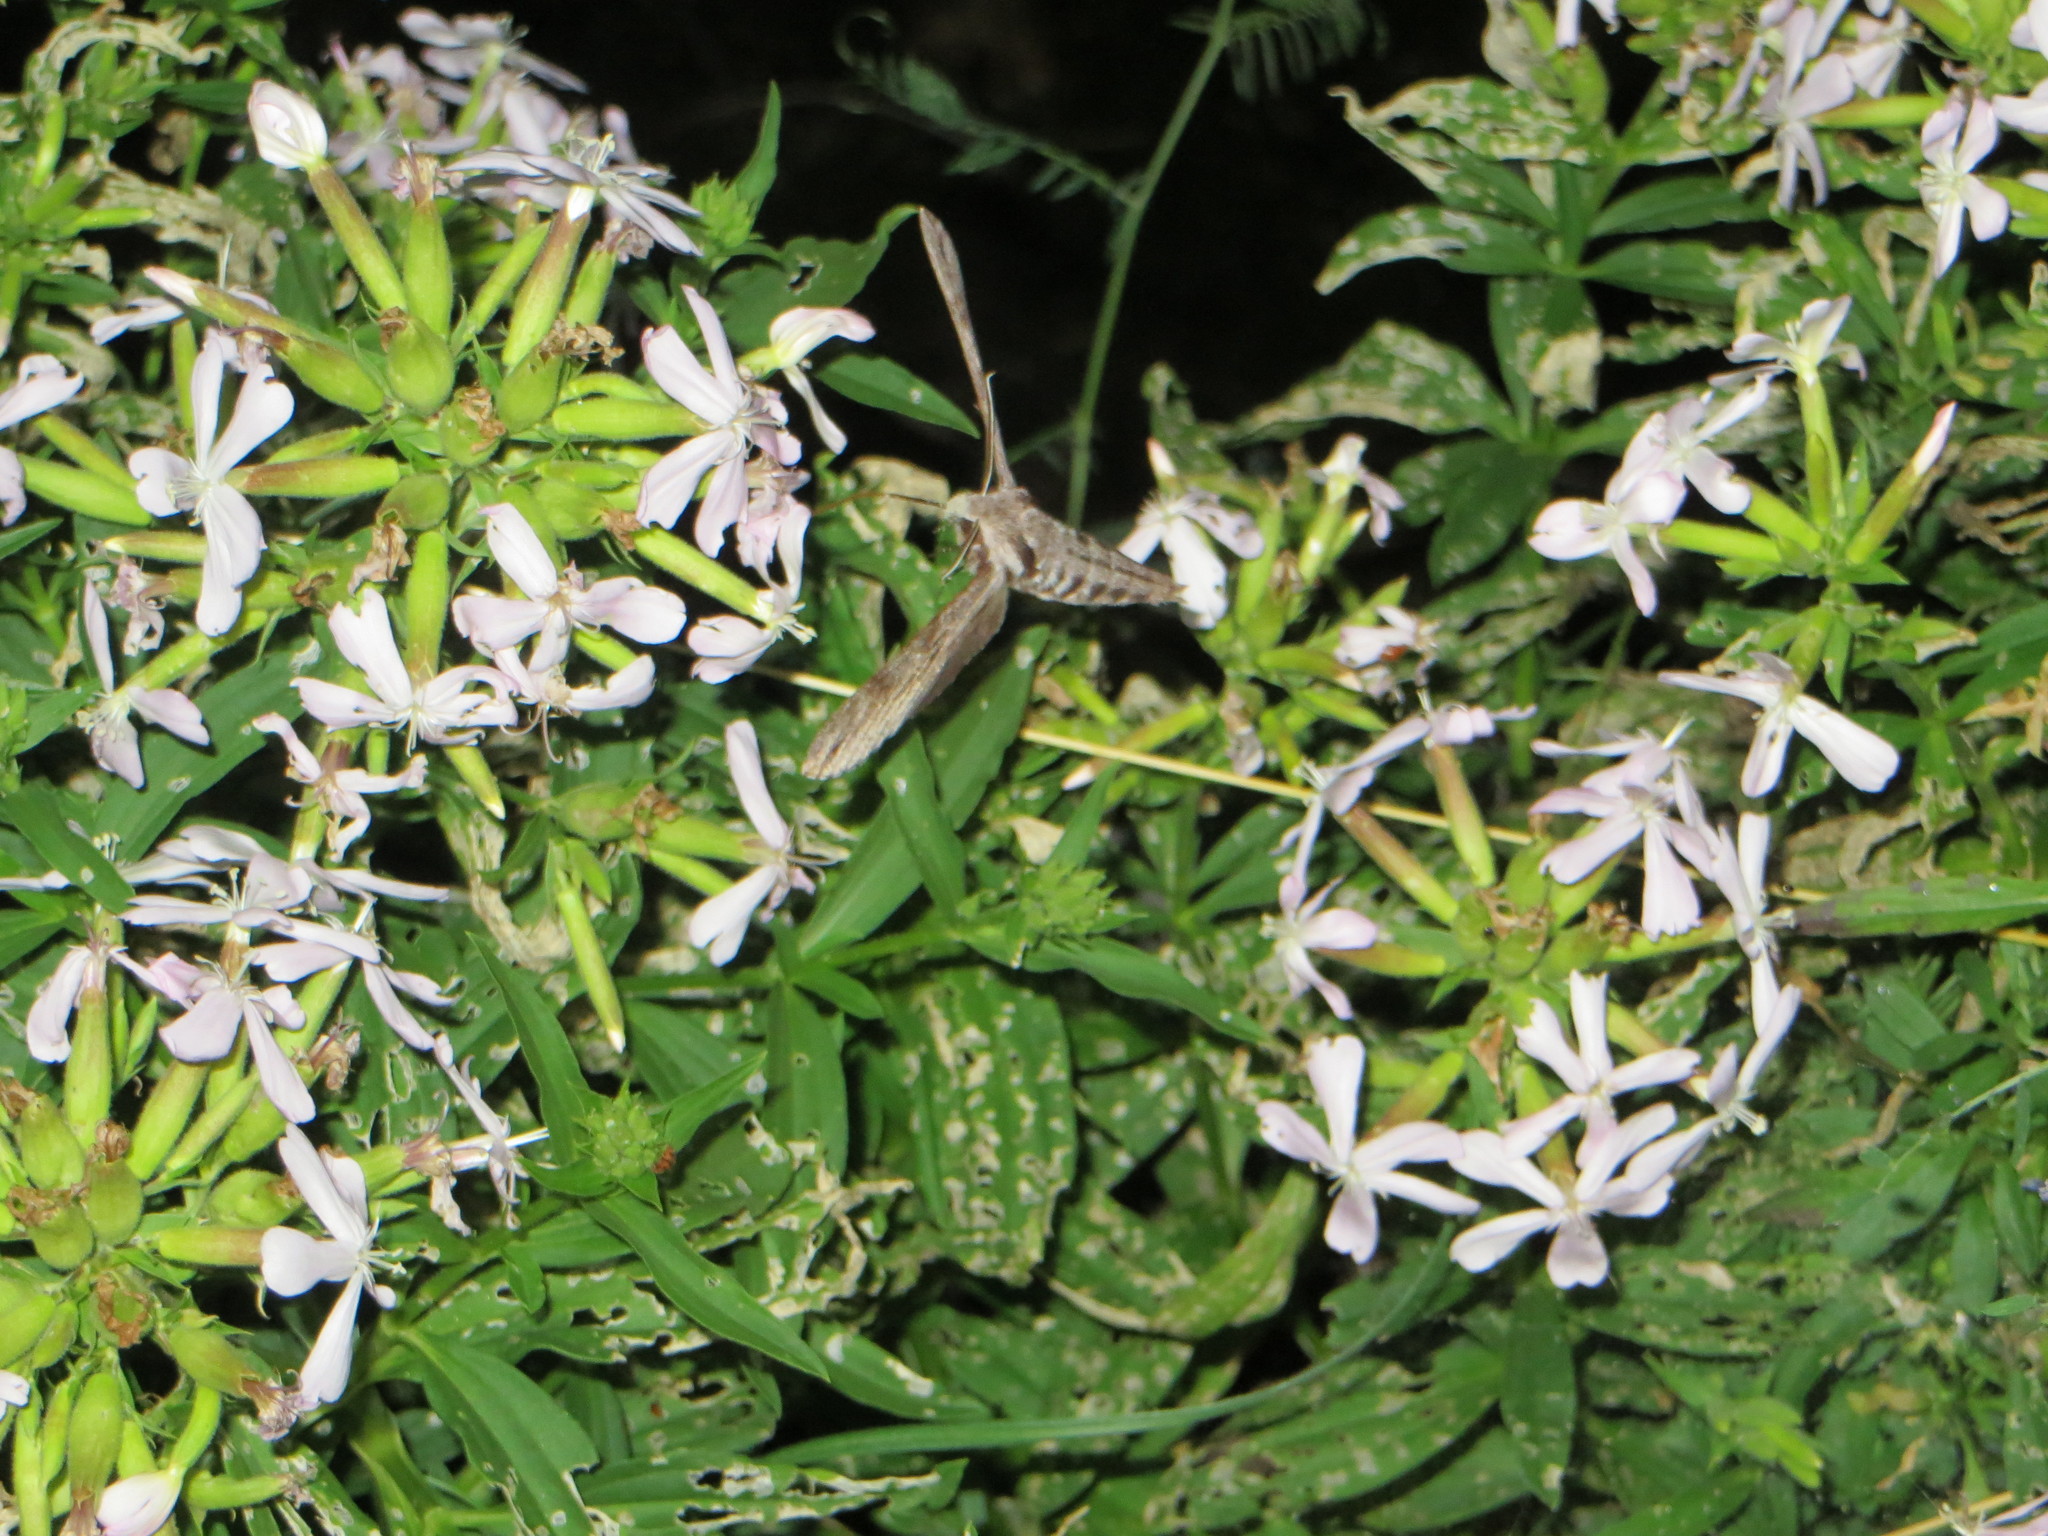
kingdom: Animalia
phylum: Arthropoda
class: Insecta
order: Lepidoptera
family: Sphingidae
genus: Sphinx
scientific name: Sphinx pinastri
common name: Pine hawk-moth
